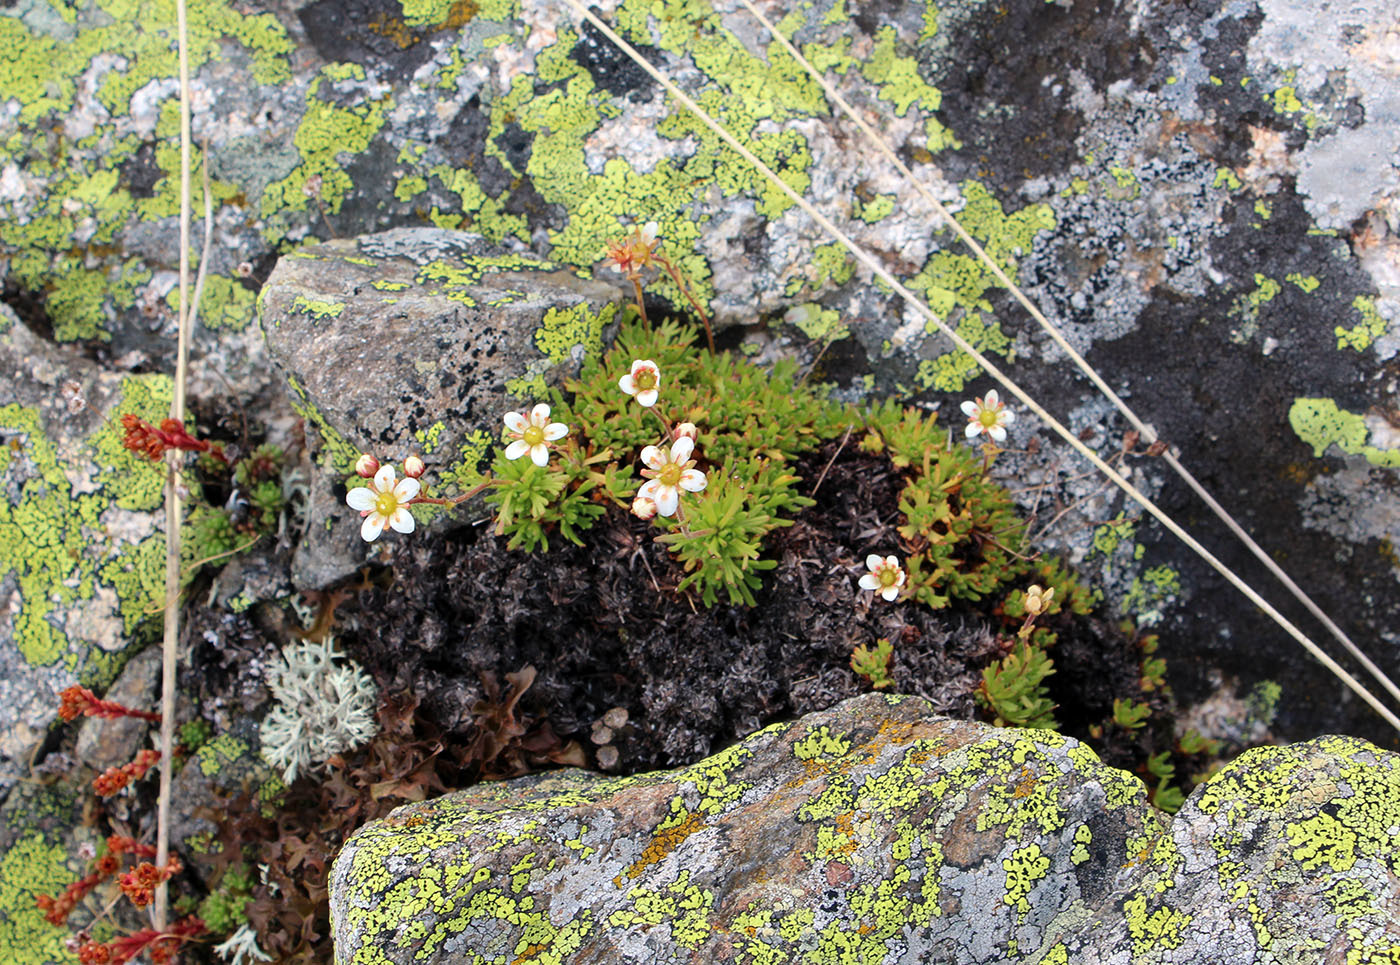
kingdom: Plantae
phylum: Tracheophyta
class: Magnoliopsida
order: Saxifragales
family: Saxifragaceae
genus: Saxifraga
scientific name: Saxifraga exarata
